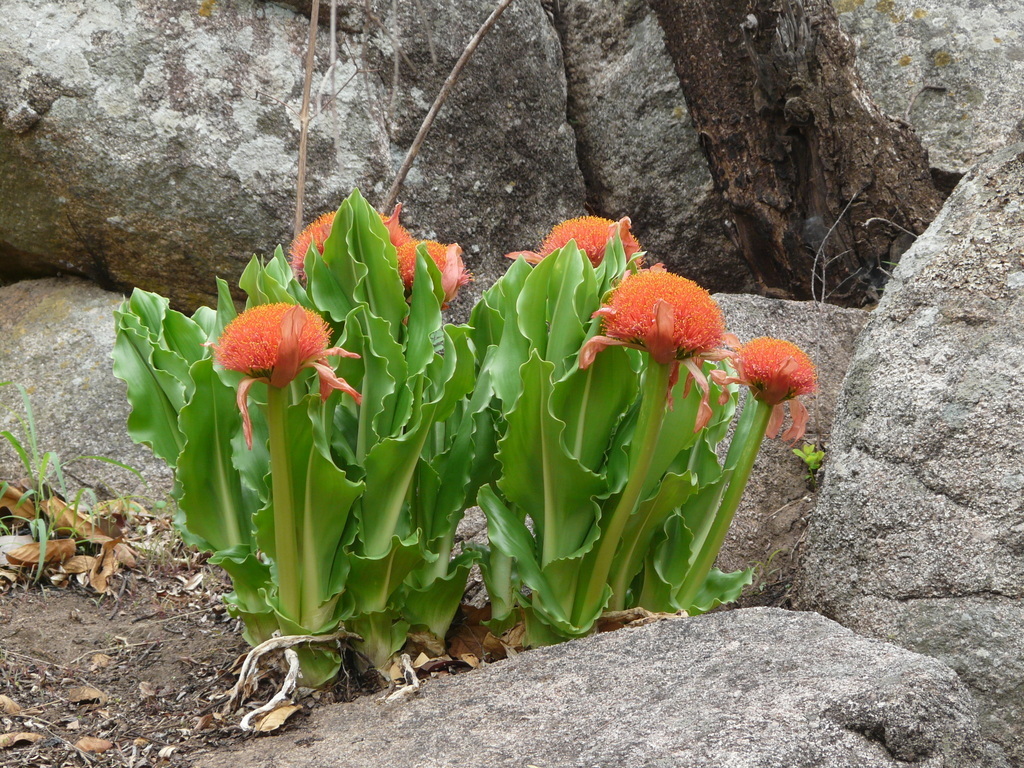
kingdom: Plantae
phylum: Tracheophyta
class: Liliopsida
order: Asparagales
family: Amaryllidaceae
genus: Scadoxus
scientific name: Scadoxus puniceus
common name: Royal-paintbrush
